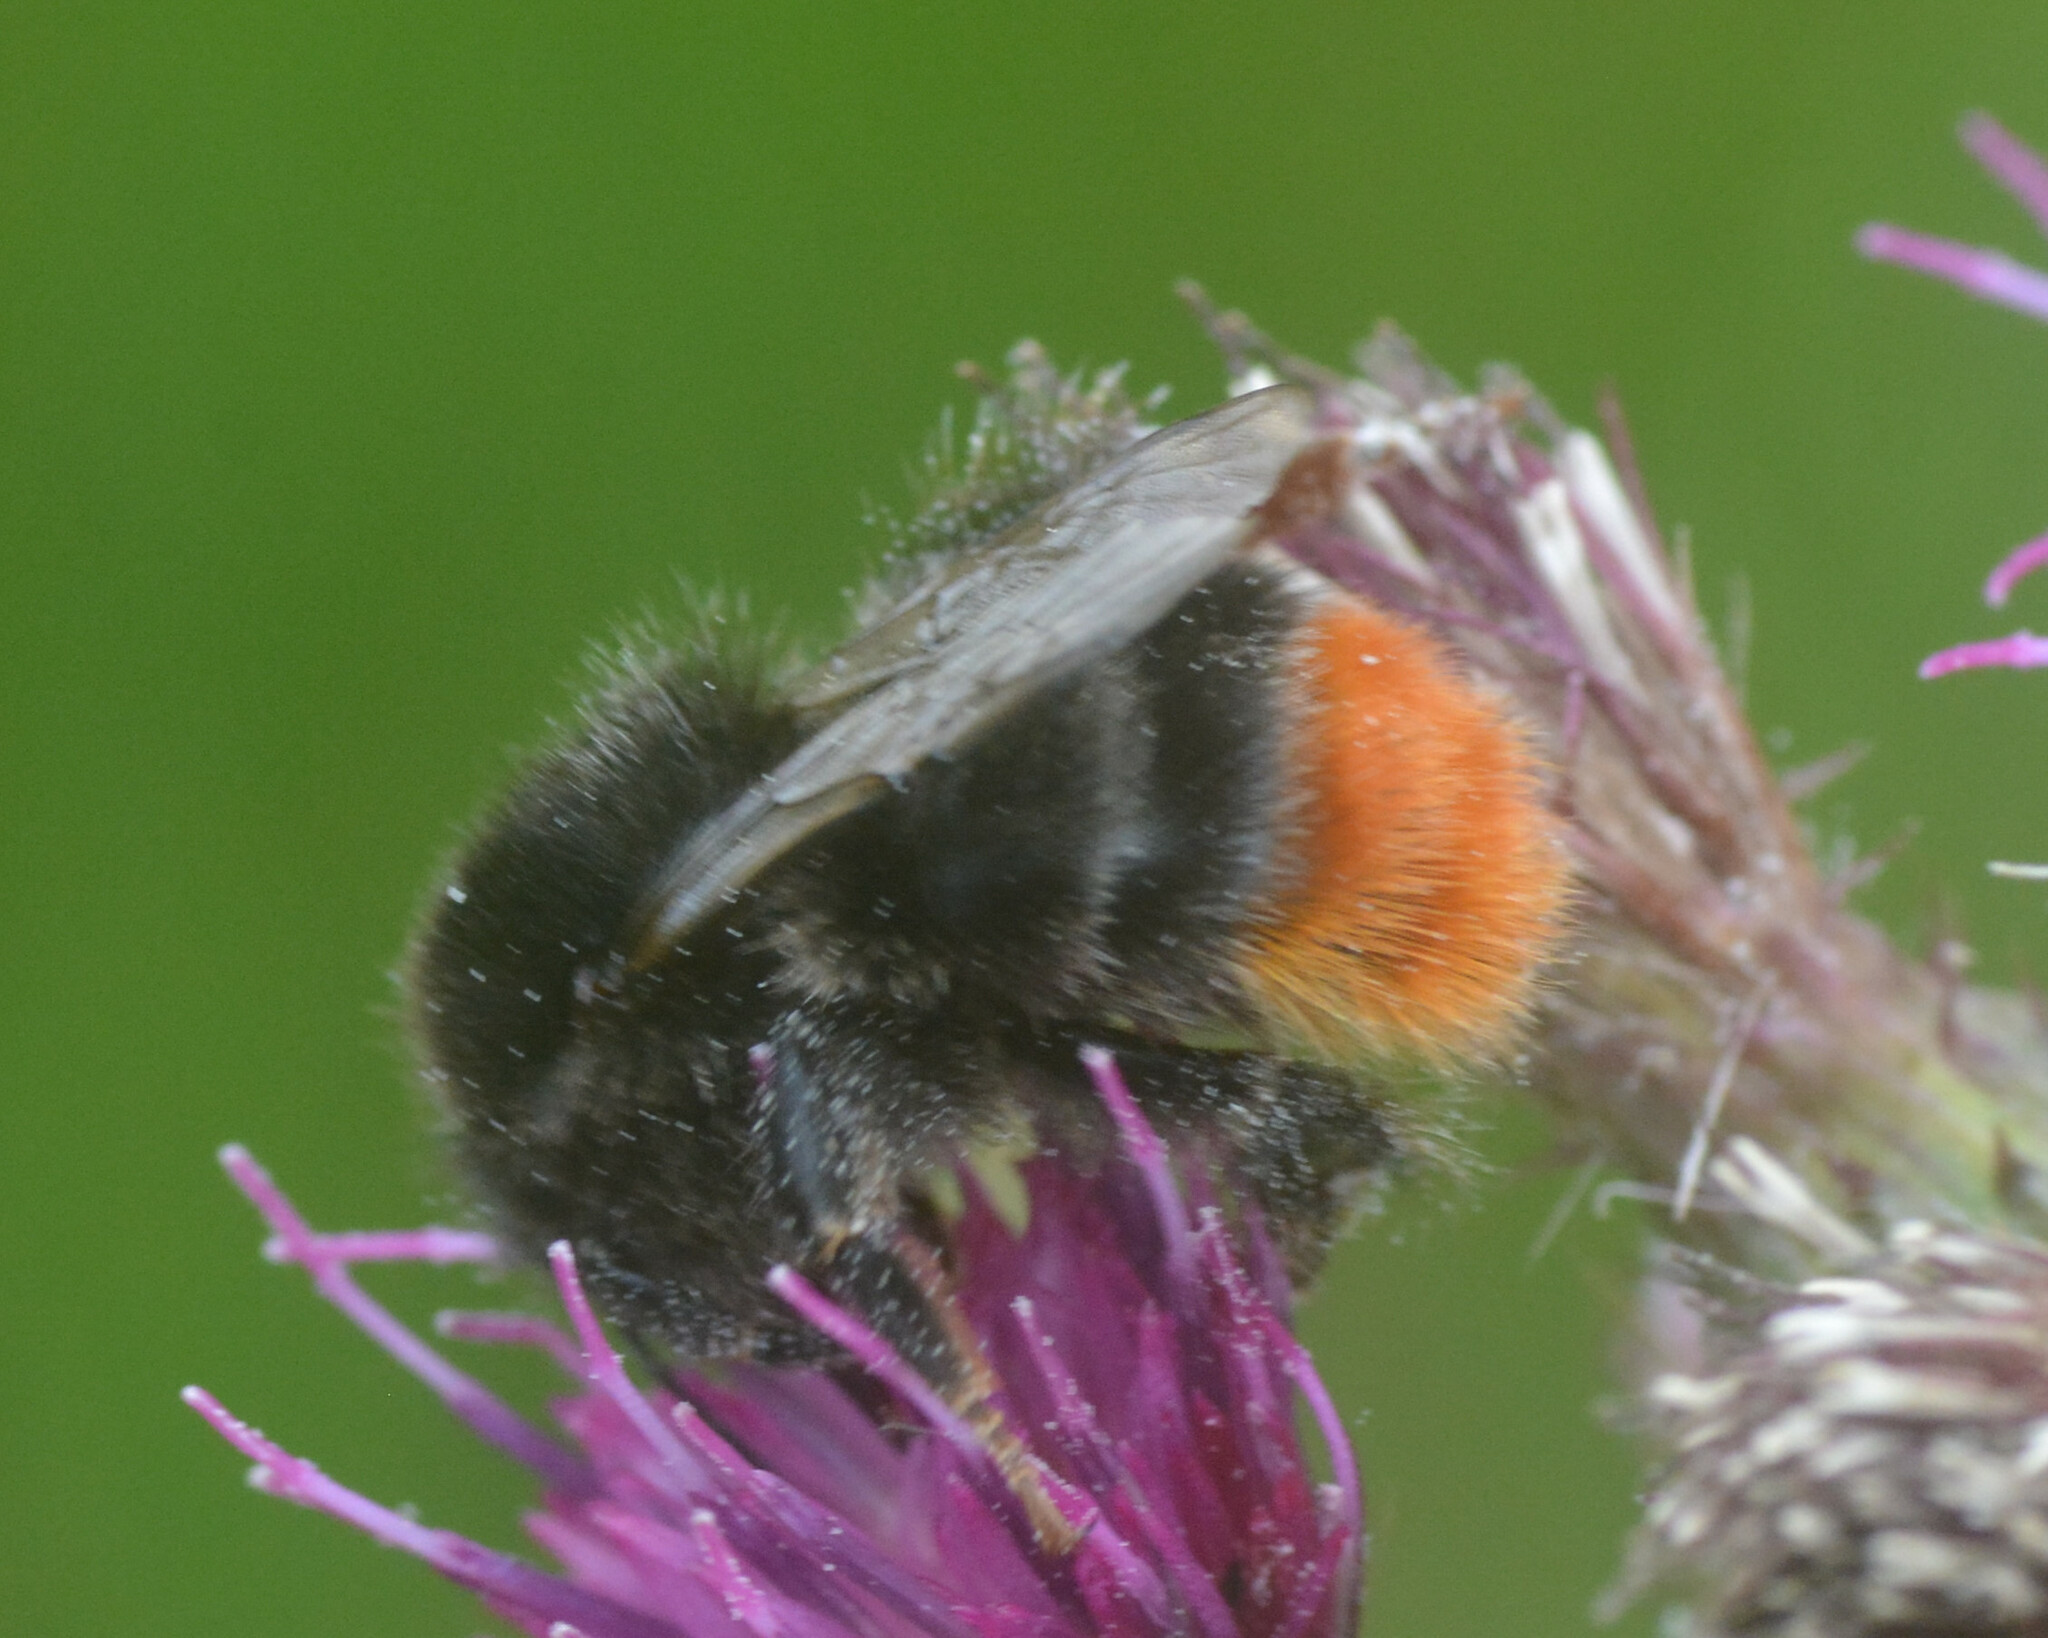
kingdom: Animalia
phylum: Arthropoda
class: Insecta
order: Hymenoptera
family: Apidae
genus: Bombus
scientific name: Bombus lapidarius
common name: Large red-tailed humble-bee
